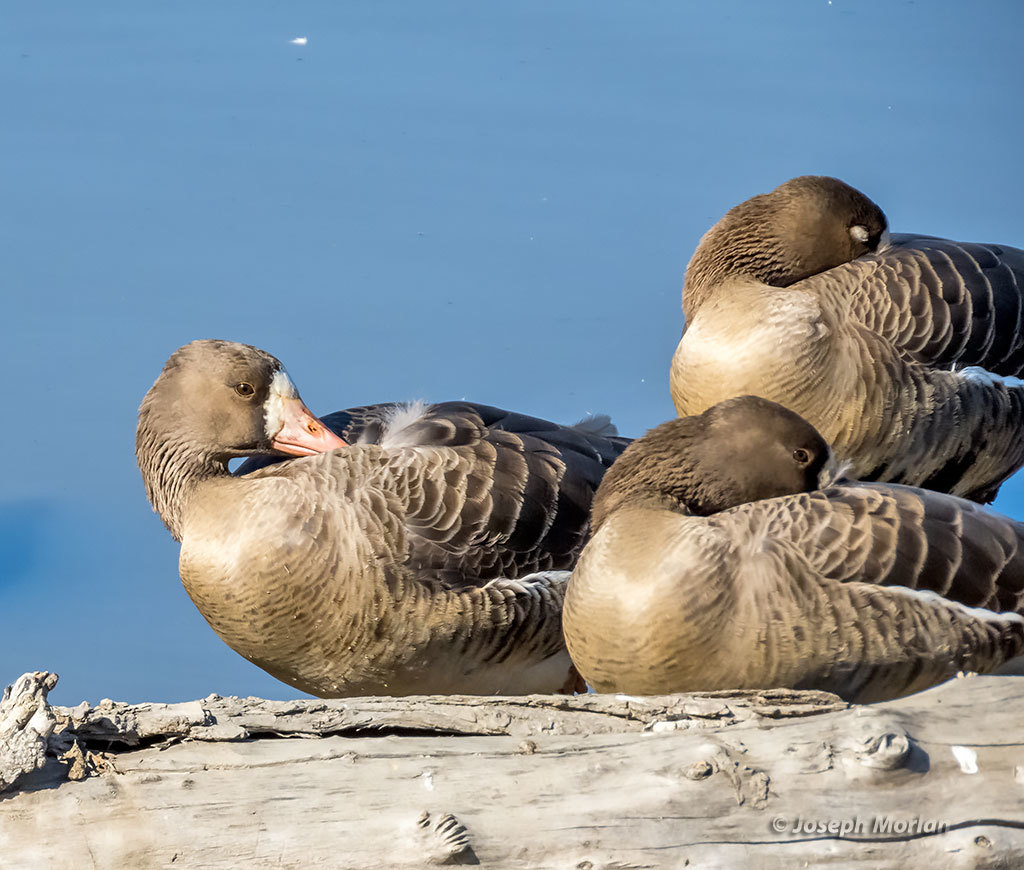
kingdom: Animalia
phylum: Chordata
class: Aves
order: Anseriformes
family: Anatidae
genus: Anser
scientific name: Anser albifrons
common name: Greater white-fronted goose
